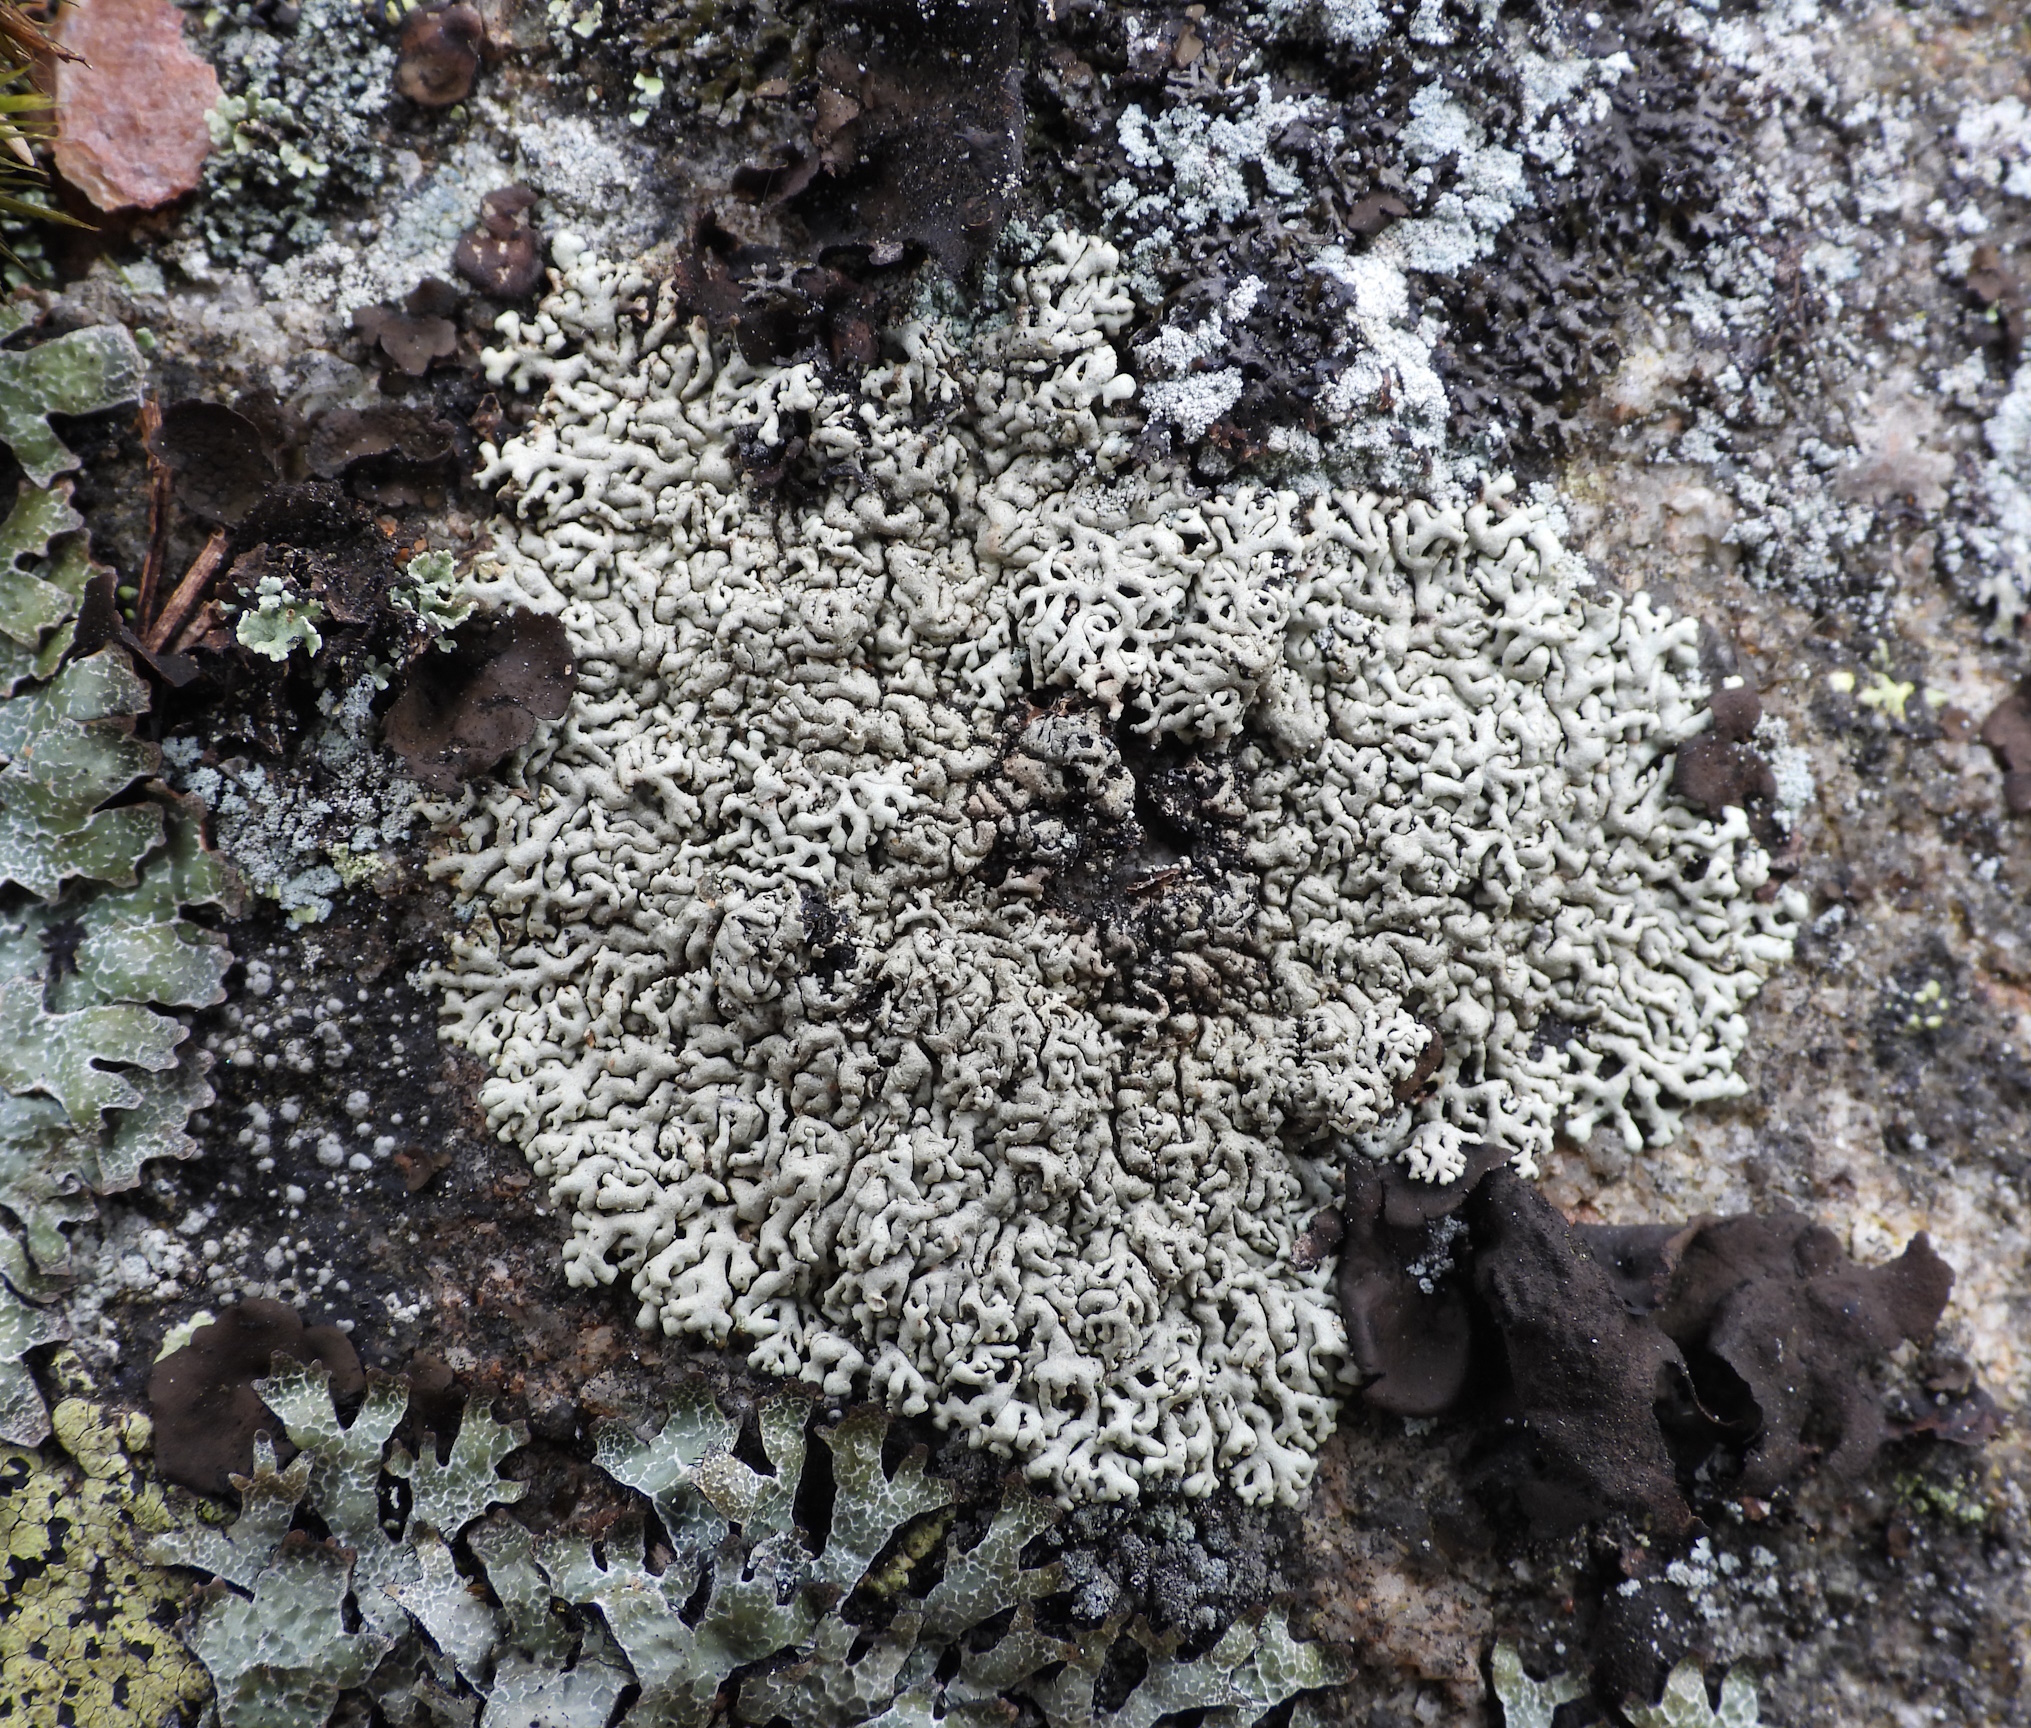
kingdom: Fungi
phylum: Ascomycota
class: Lecanoromycetes
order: Lecanorales
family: Parmeliaceae
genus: Arctoparmelia
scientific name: Arctoparmelia incurva
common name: Bent ring lichen
